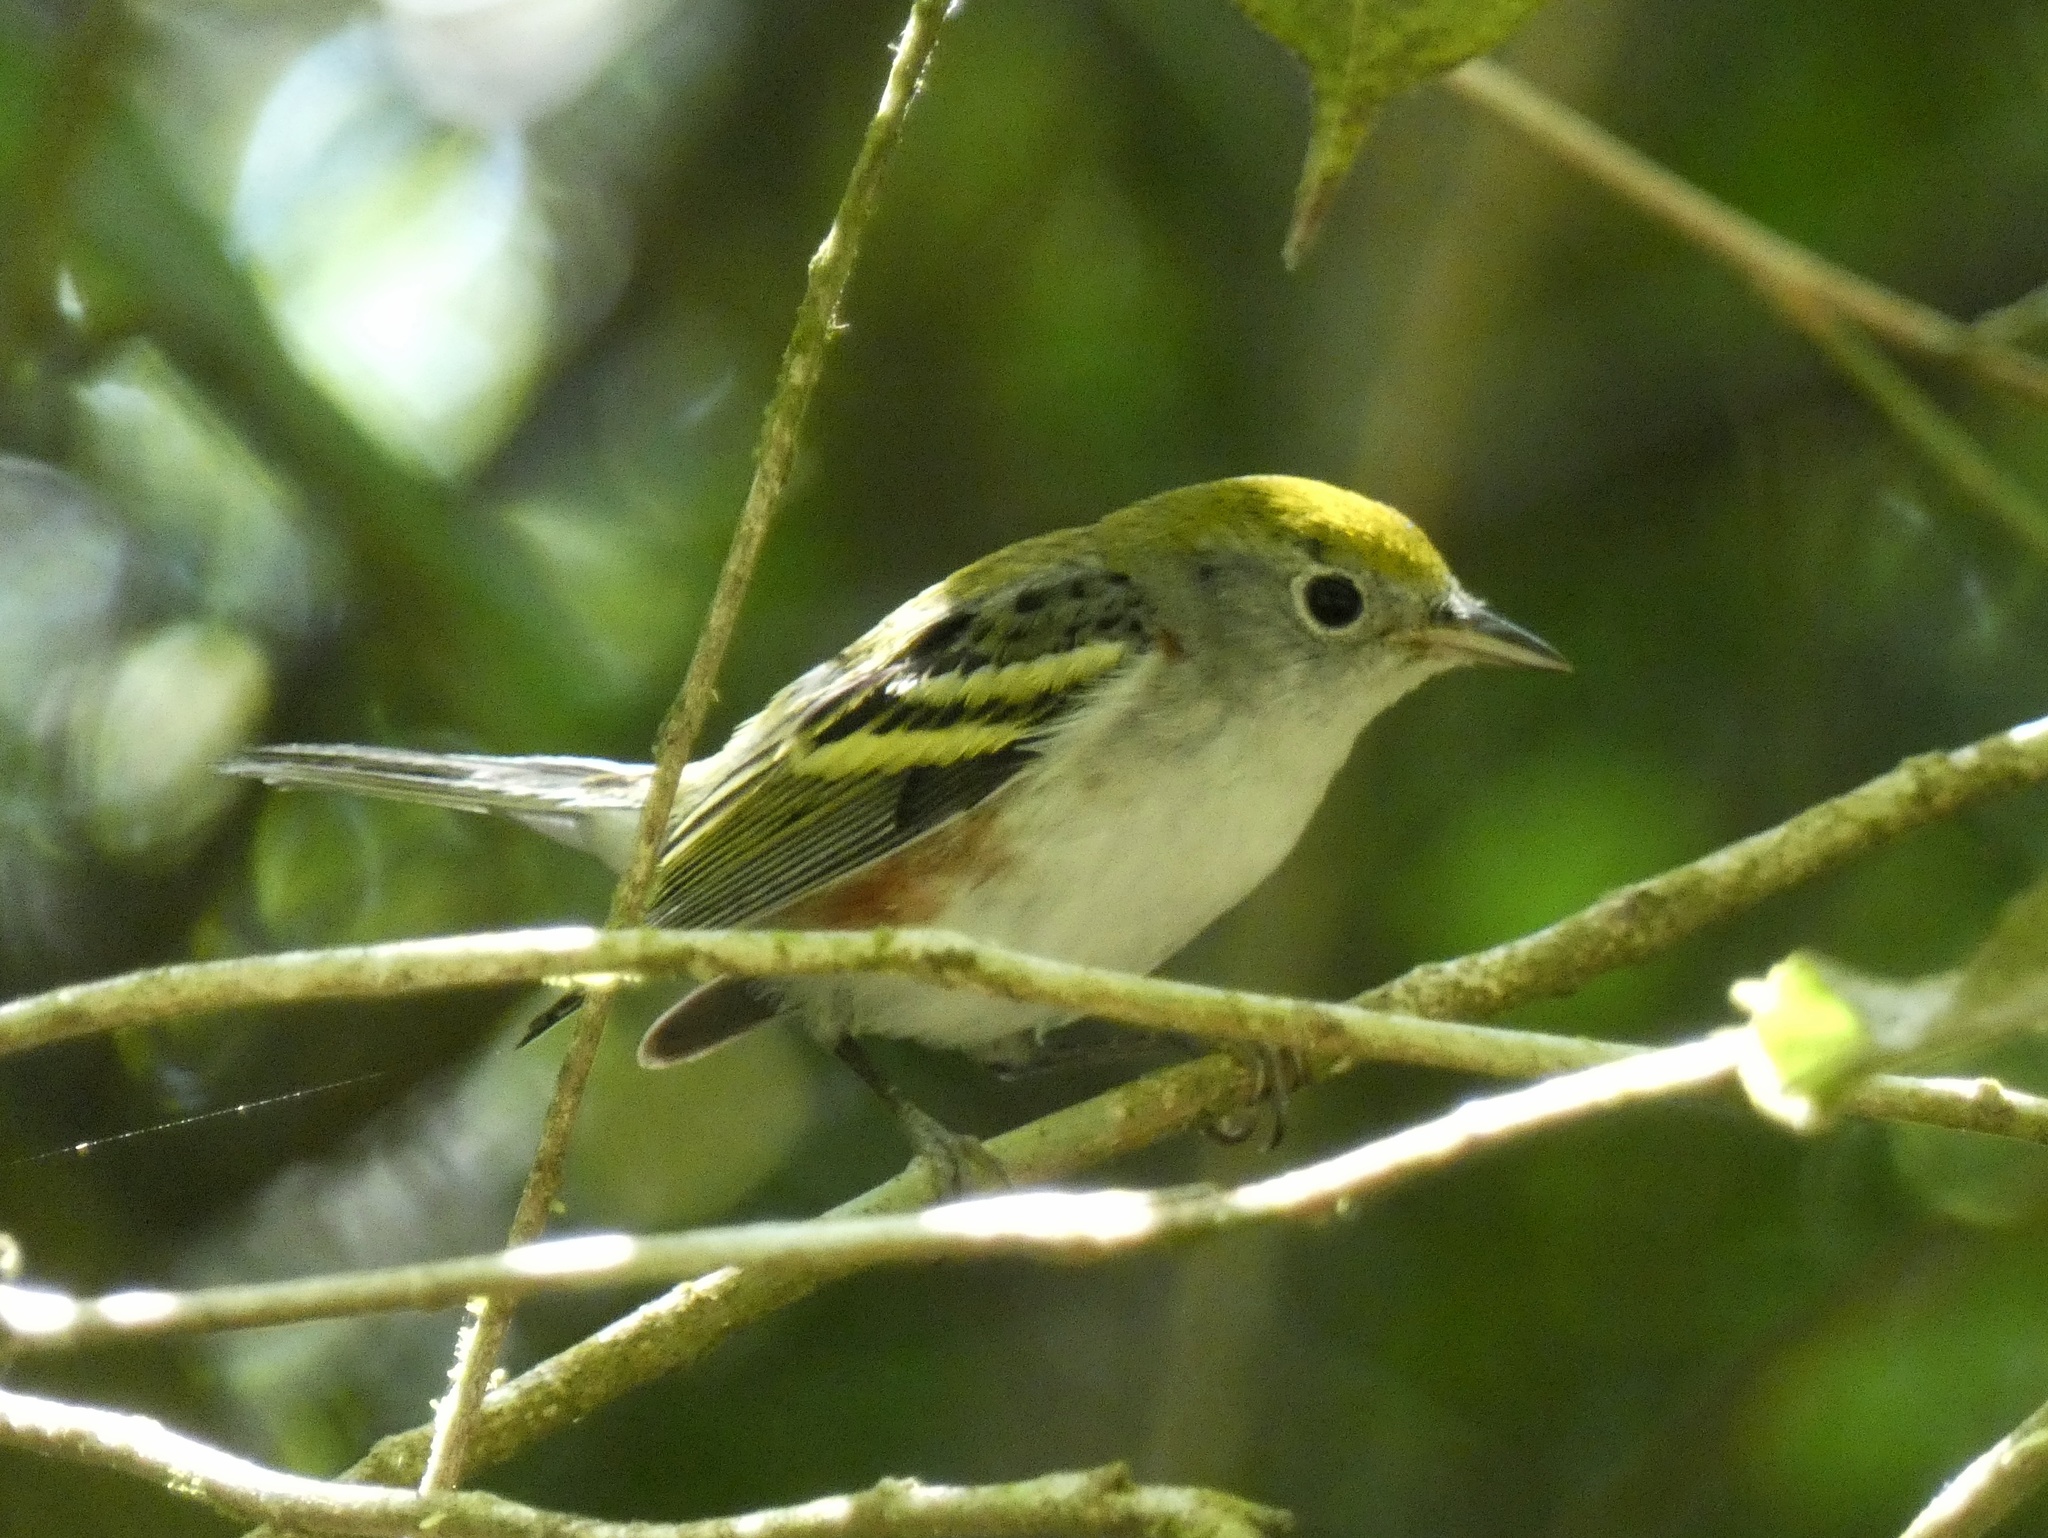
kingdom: Animalia
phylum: Chordata
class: Aves
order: Passeriformes
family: Parulidae
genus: Setophaga
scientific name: Setophaga pensylvanica
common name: Chestnut-sided warbler
